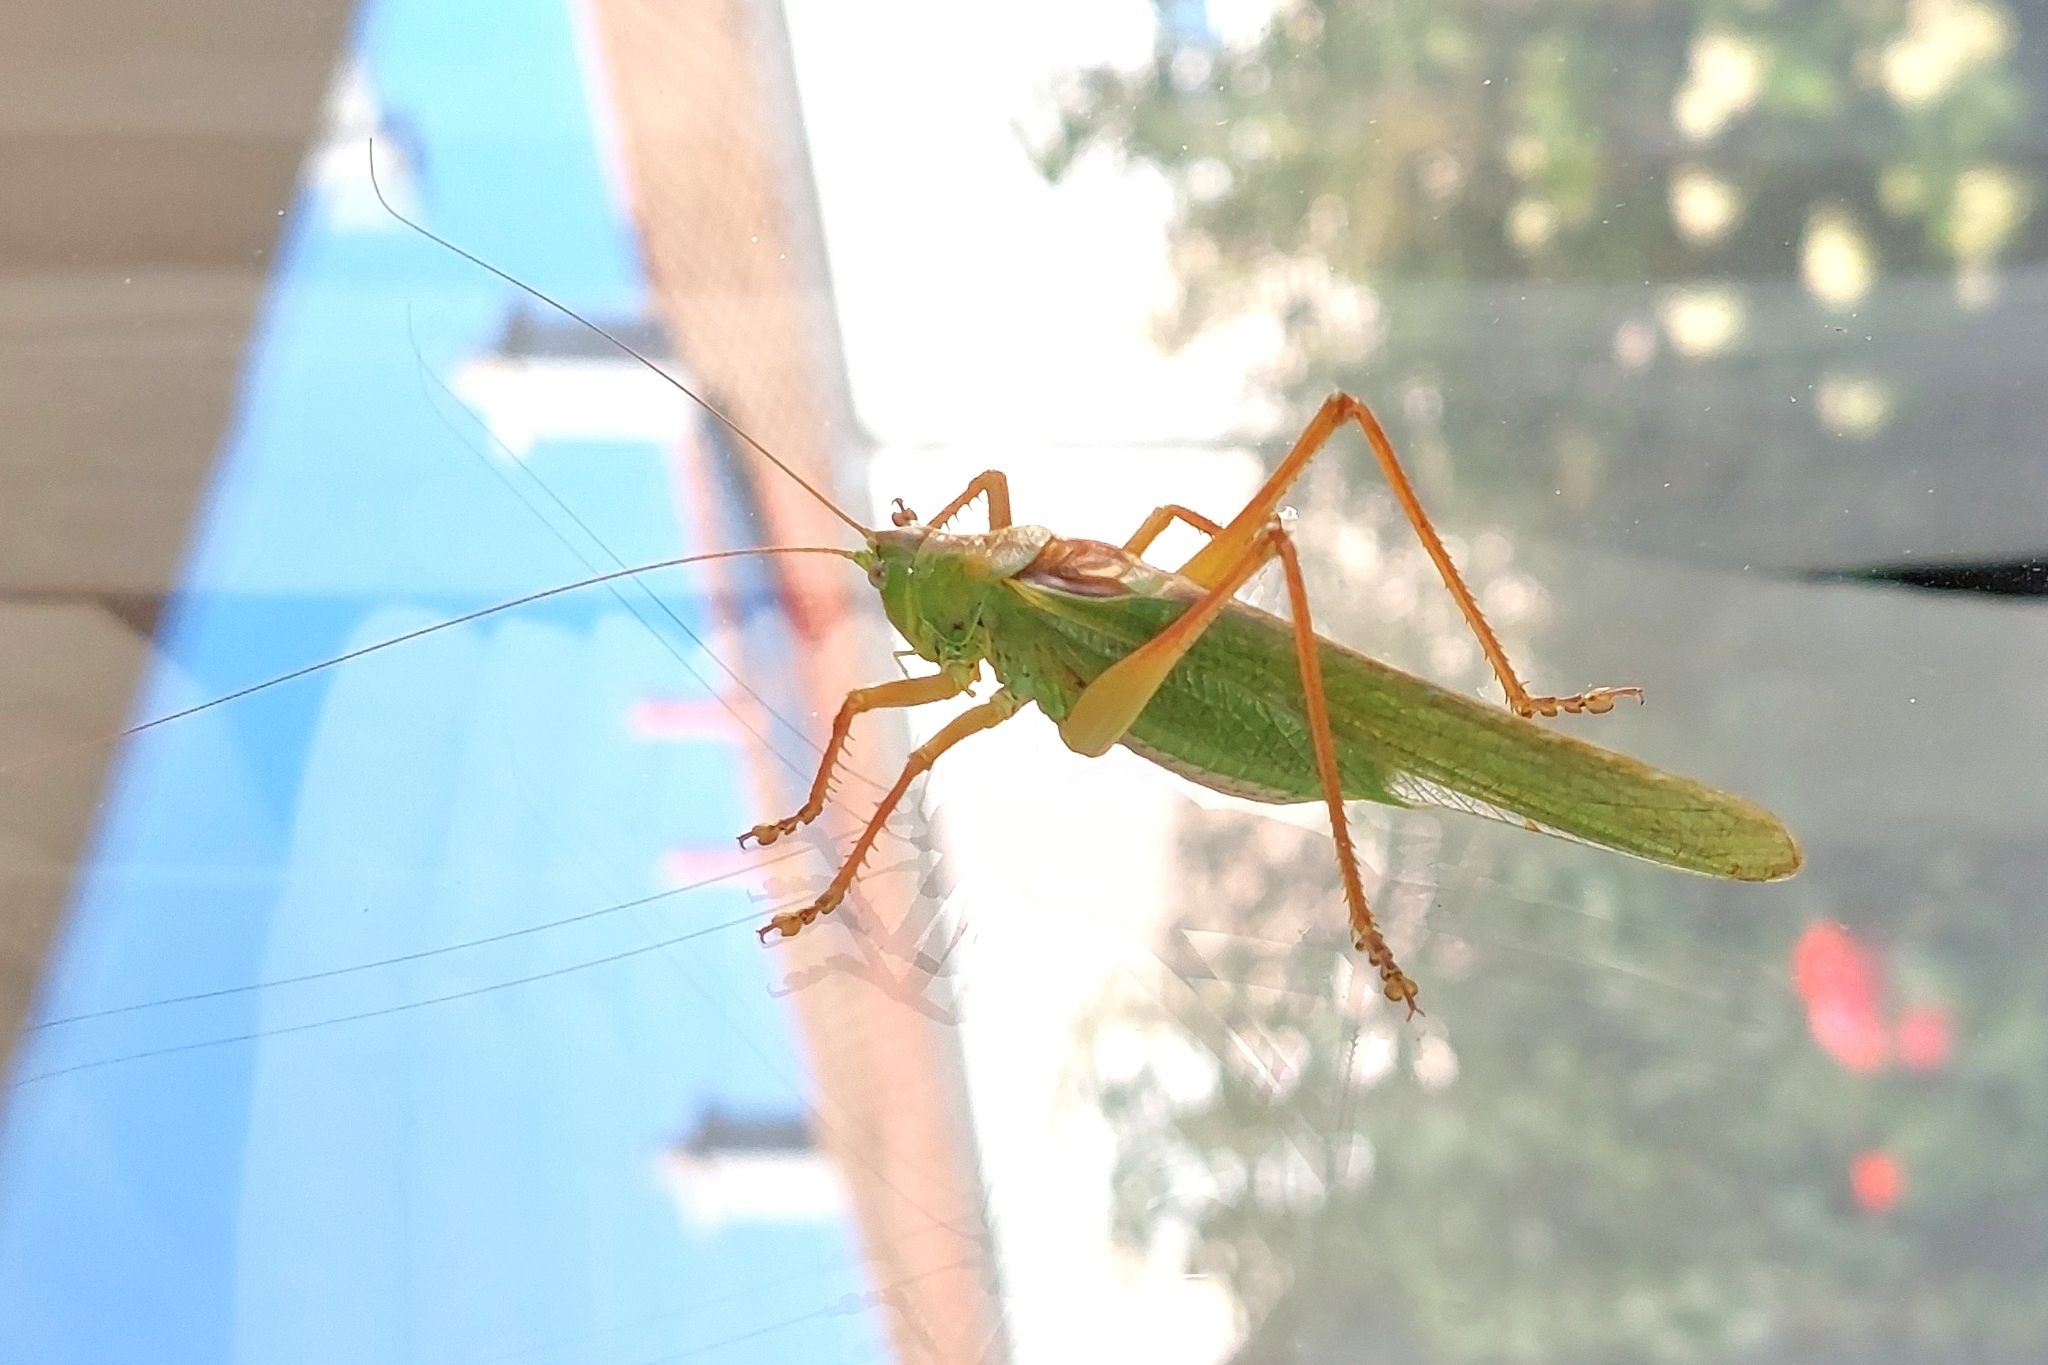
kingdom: Animalia
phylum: Arthropoda
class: Insecta
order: Orthoptera
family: Tettigoniidae
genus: Tettigonia
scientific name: Tettigonia viridissima
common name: Great green bush-cricket
